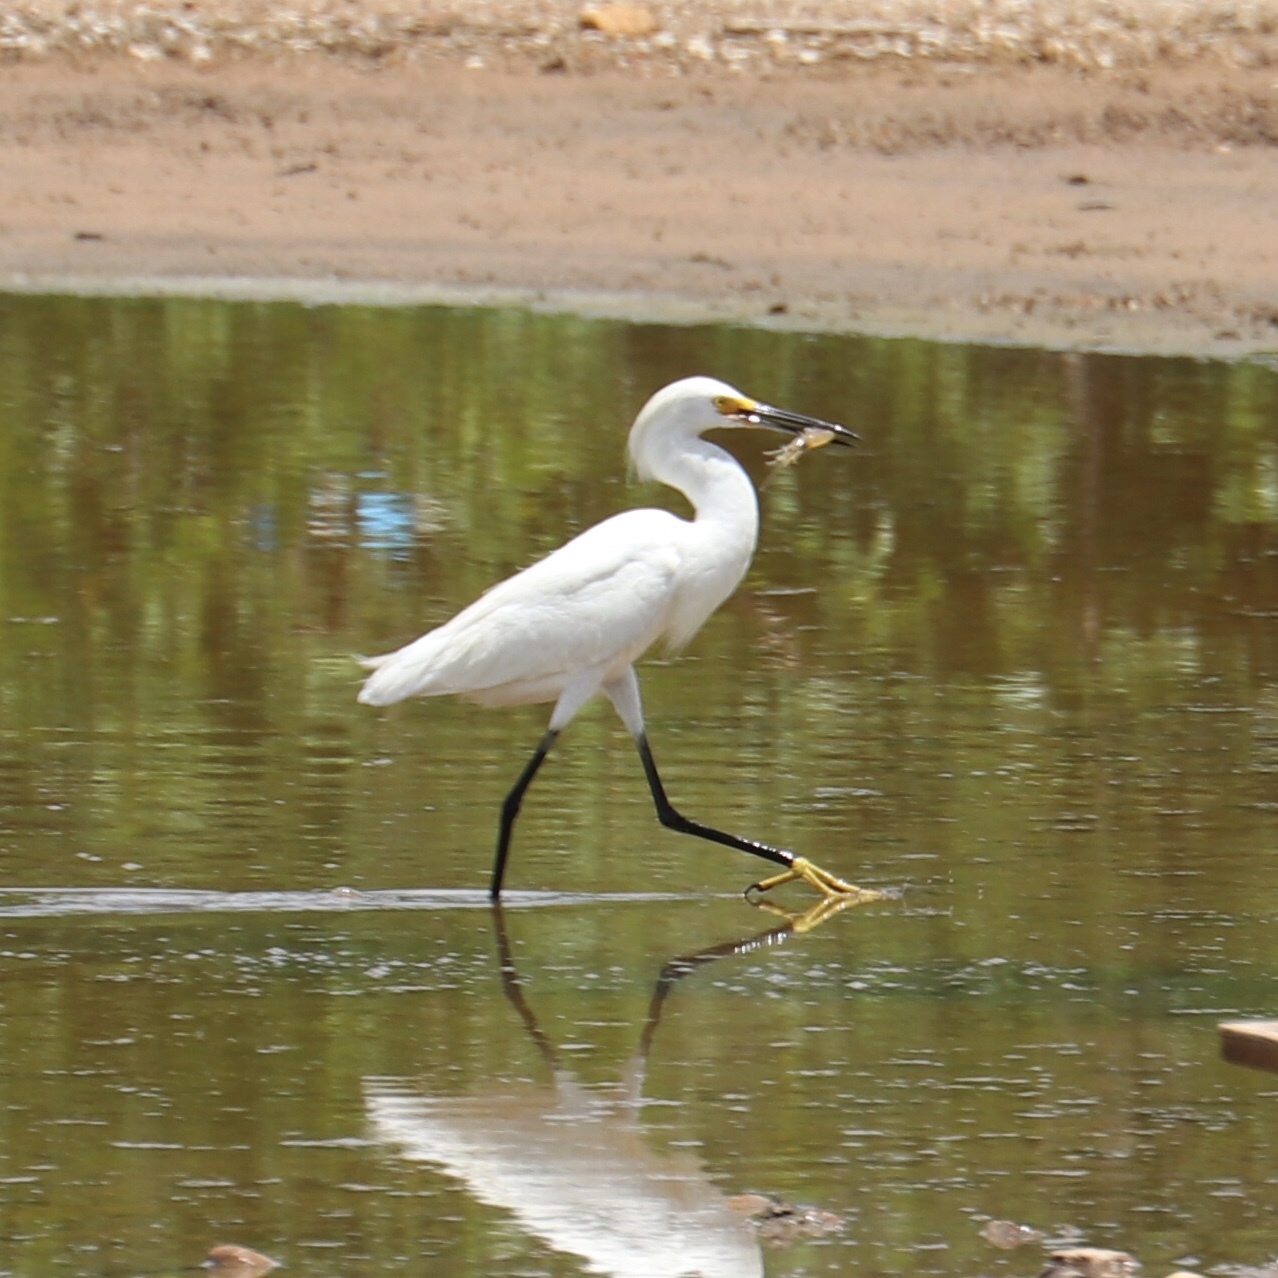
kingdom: Animalia
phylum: Chordata
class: Aves
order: Pelecaniformes
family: Ardeidae
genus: Egretta
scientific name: Egretta thula
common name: Snowy egret
